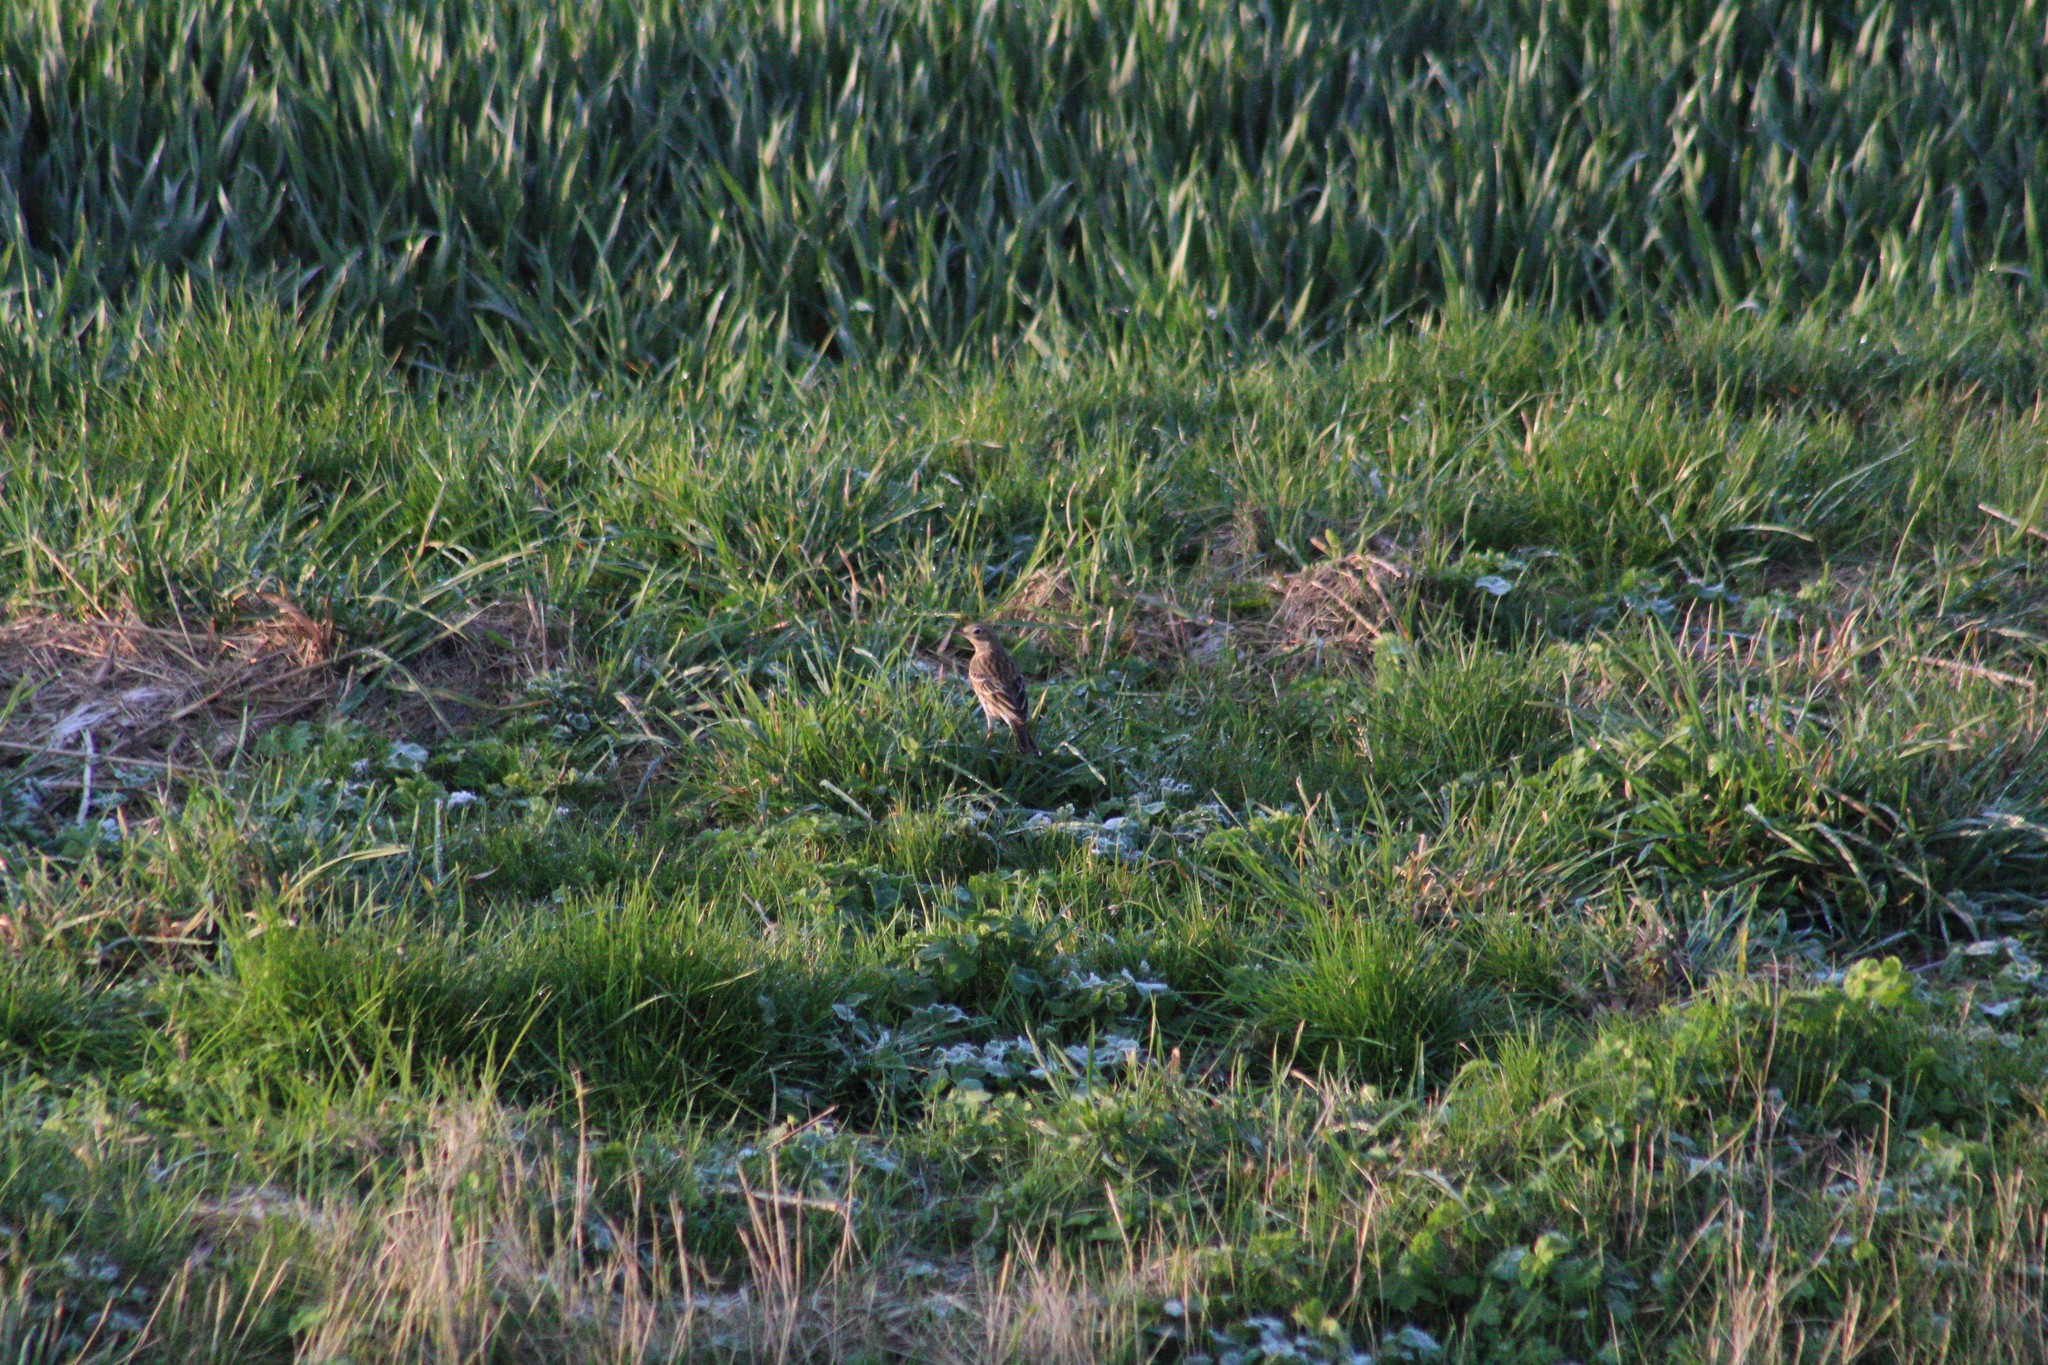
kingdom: Animalia
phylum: Chordata
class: Aves
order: Passeriformes
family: Motacillidae
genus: Anthus
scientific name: Anthus pratensis
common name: Meadow pipit
